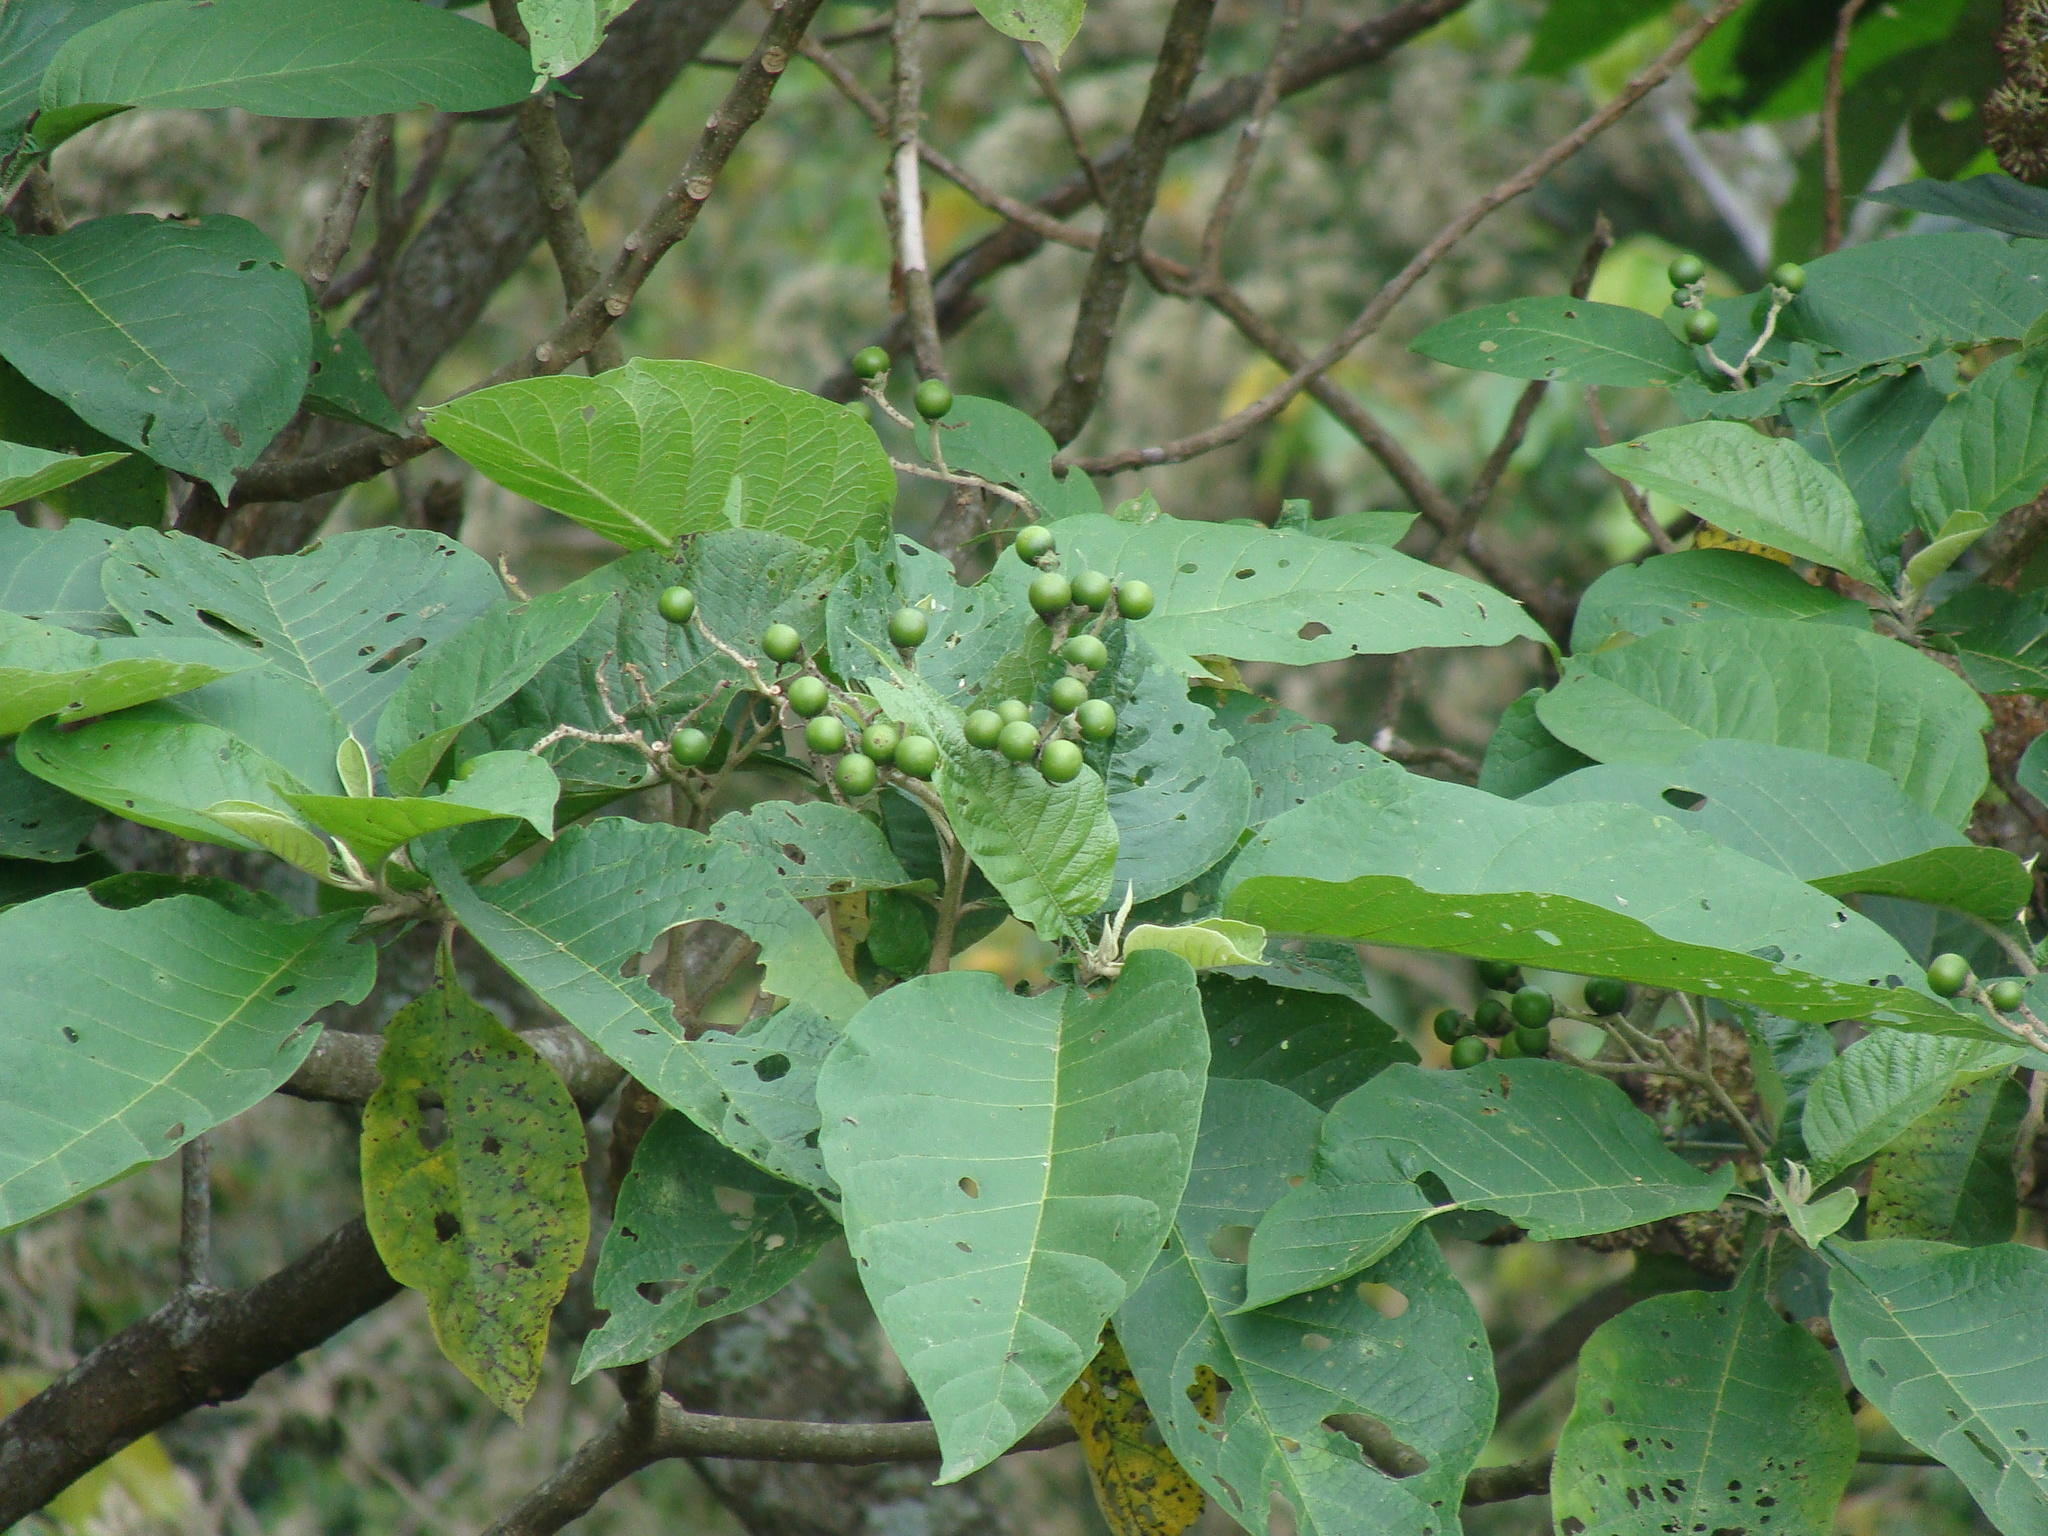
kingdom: Plantae
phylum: Tracheophyta
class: Magnoliopsida
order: Solanales
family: Solanaceae
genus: Solanum
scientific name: Solanum chiapasense
